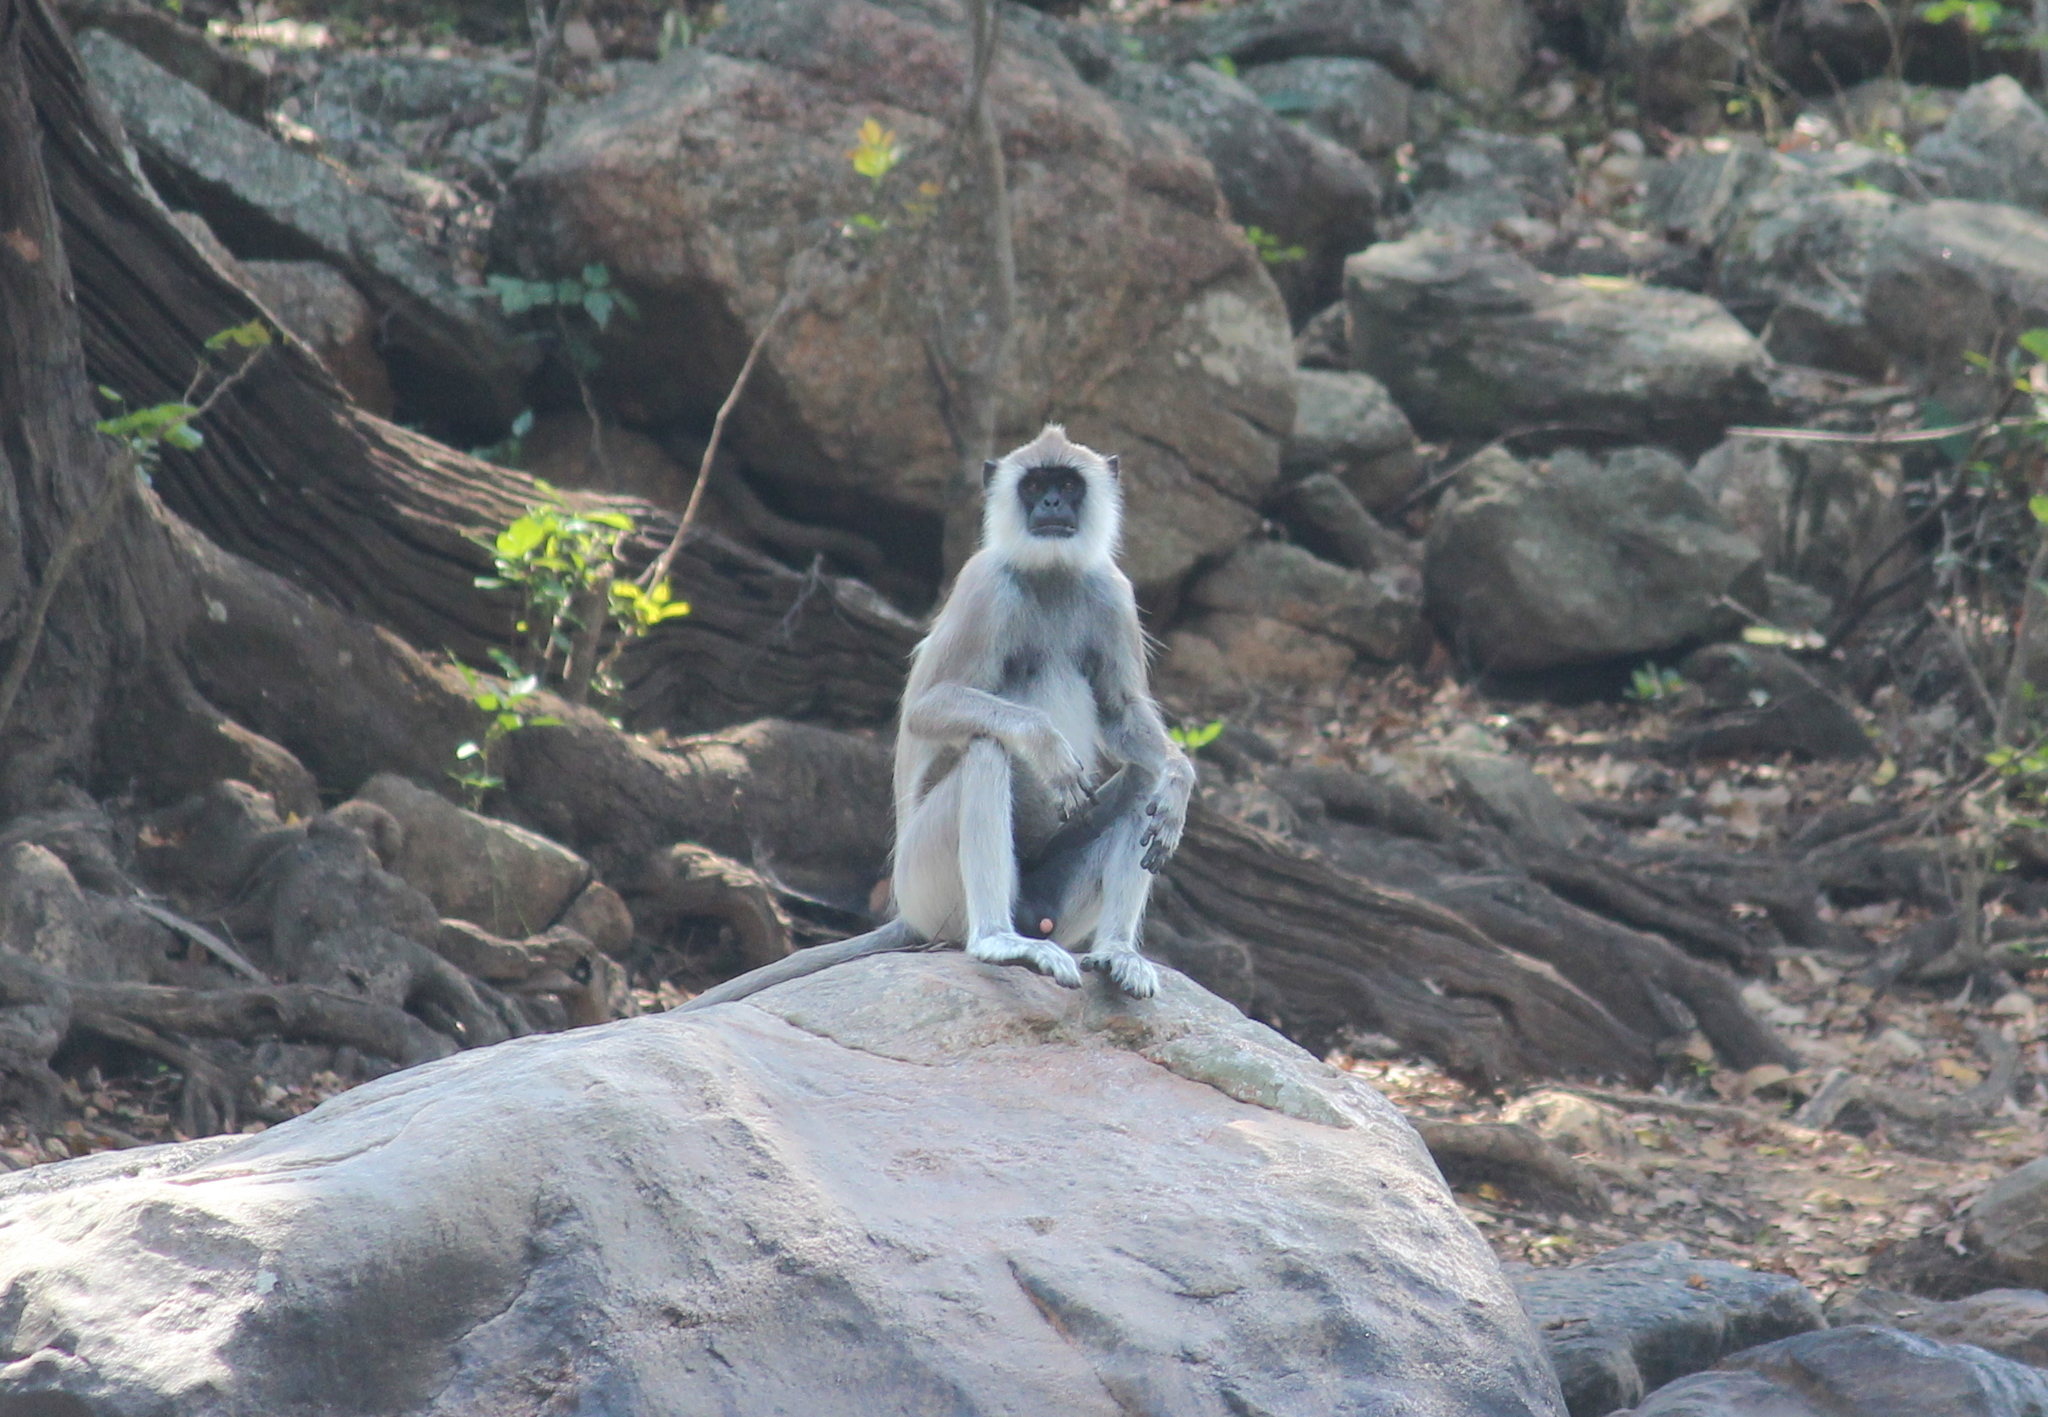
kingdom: Animalia
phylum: Chordata
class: Mammalia
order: Primates
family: Cercopithecidae
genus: Semnopithecus
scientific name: Semnopithecus priam
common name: Tufted gray langur
